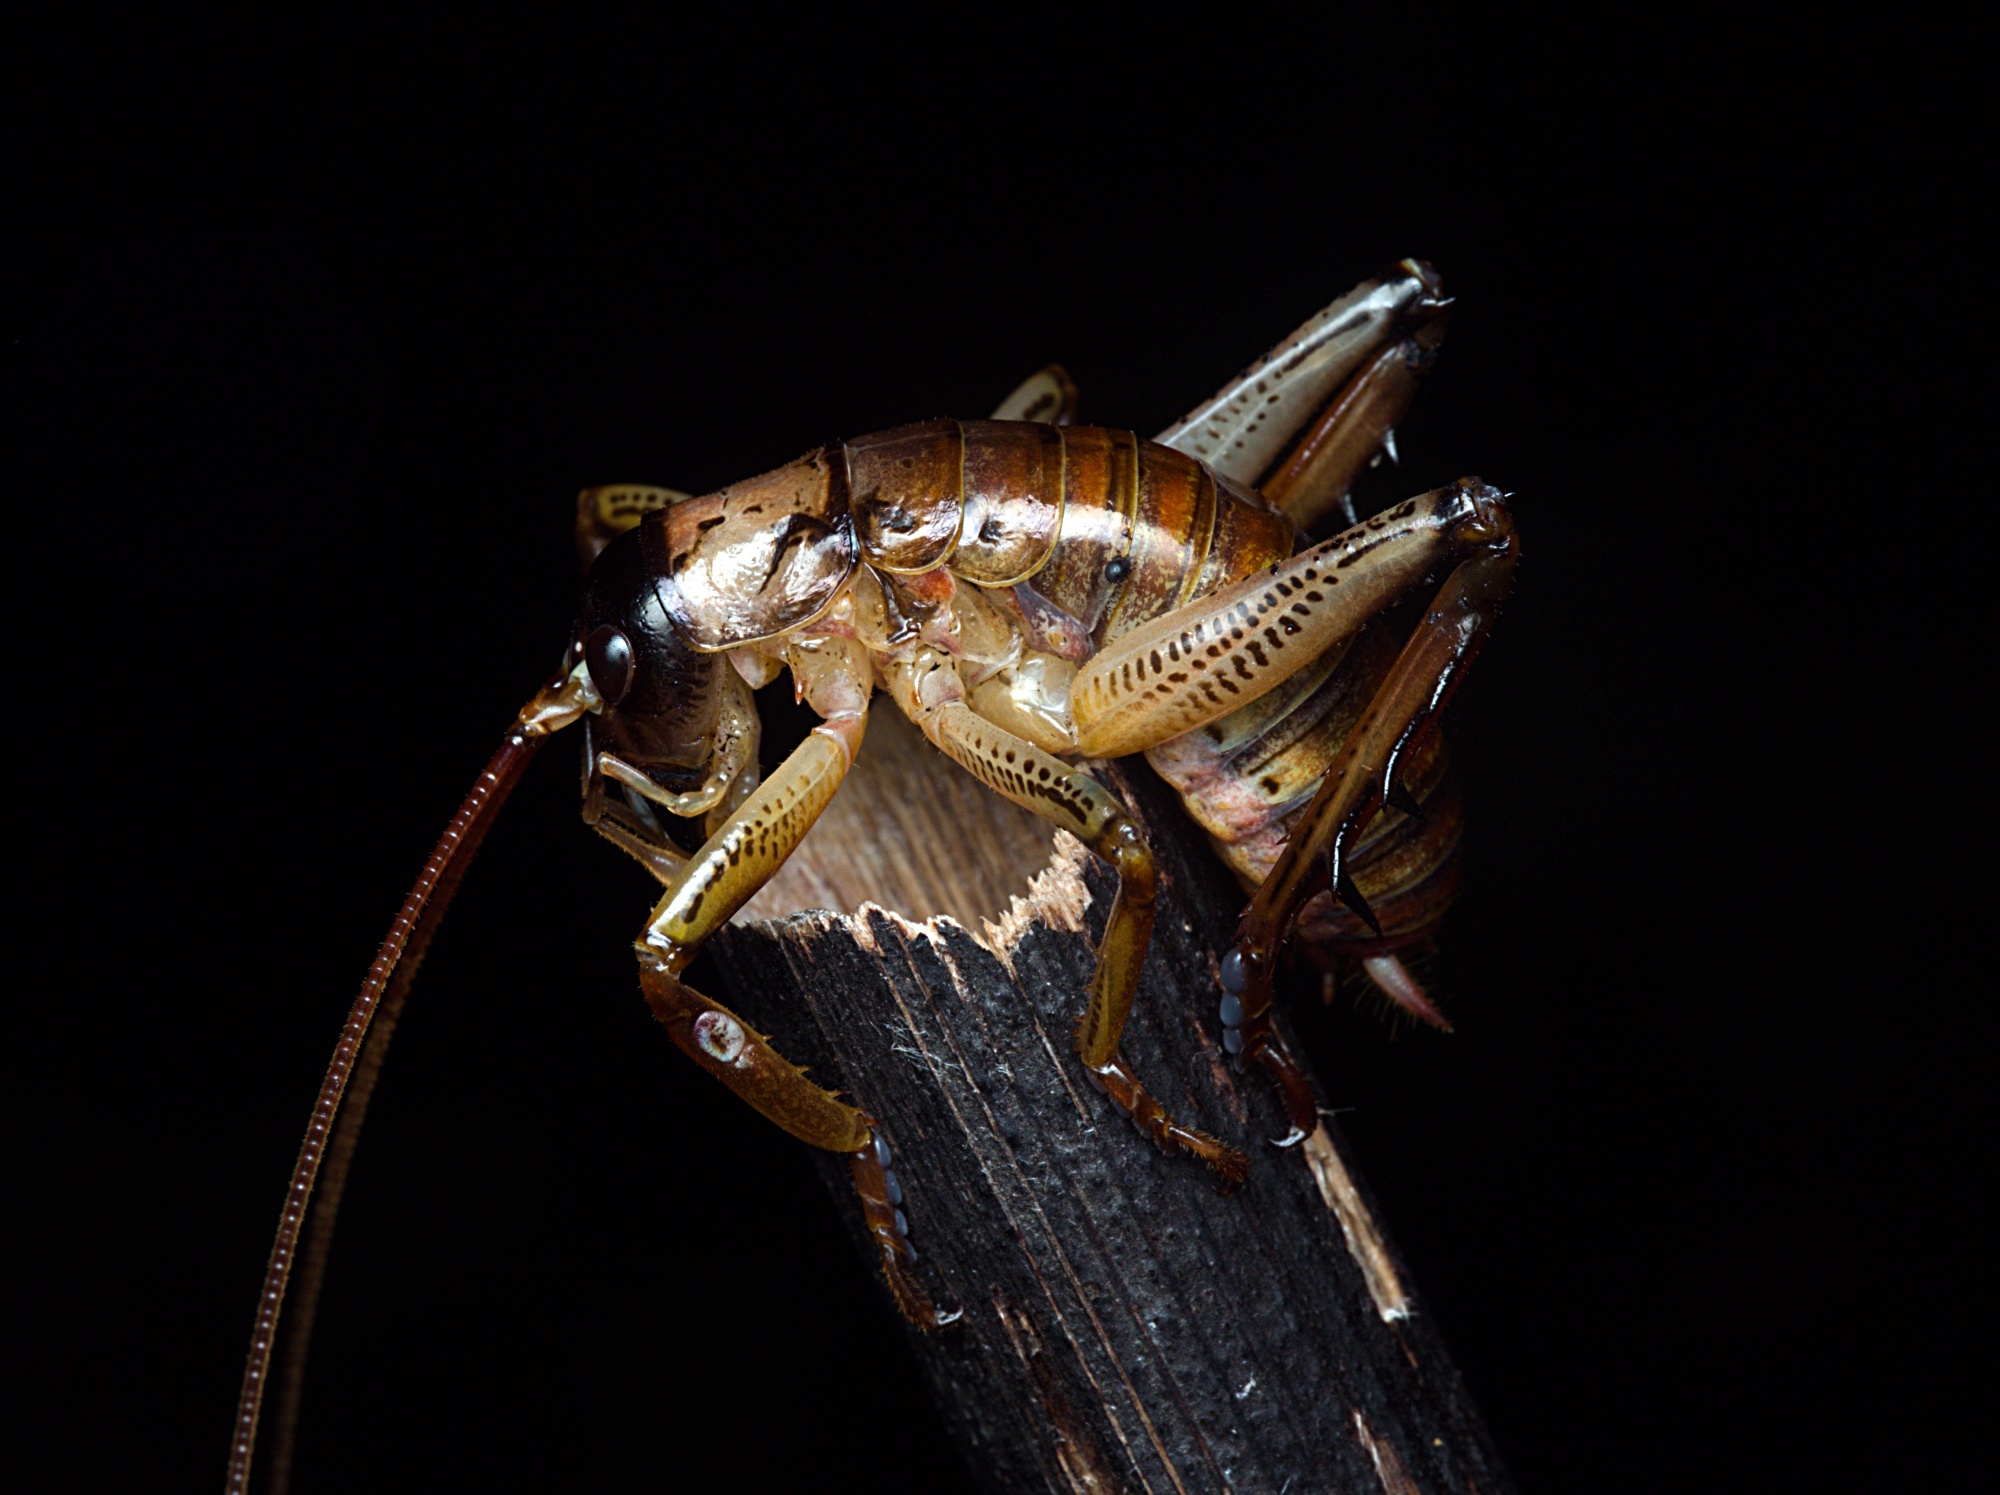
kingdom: Animalia
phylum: Arthropoda
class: Insecta
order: Orthoptera
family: Anostostomatidae
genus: Hemideina
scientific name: Hemideina thoracica
